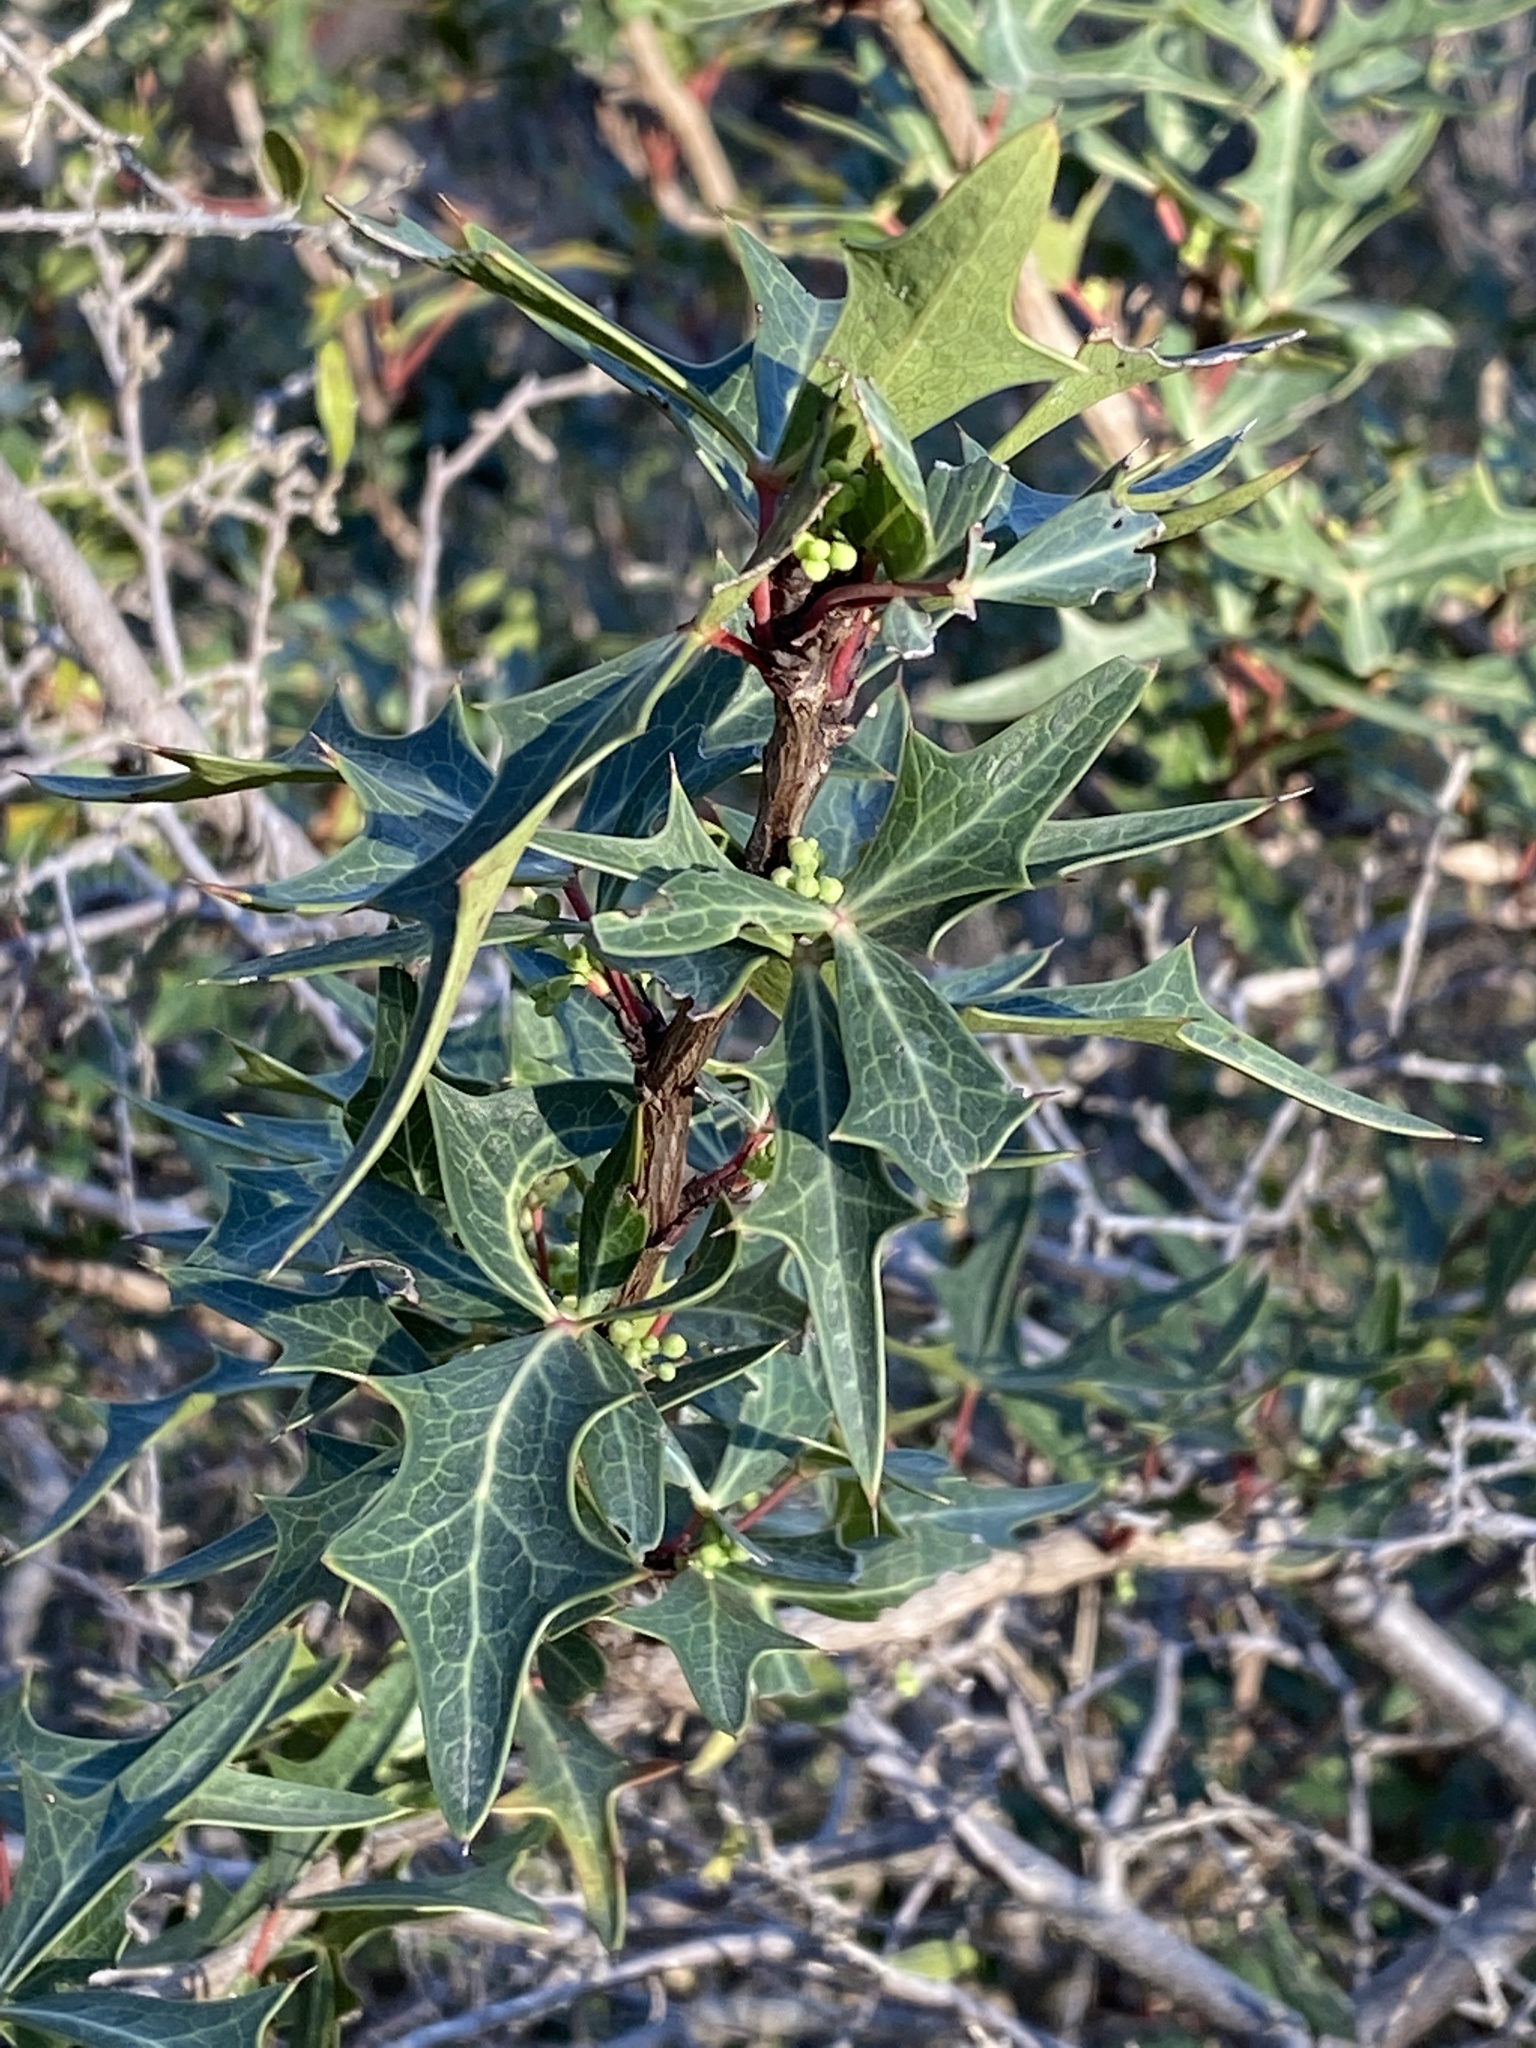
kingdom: Plantae
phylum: Tracheophyta
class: Magnoliopsida
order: Ranunculales
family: Berberidaceae
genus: Alloberberis
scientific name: Alloberberis trifoliolata
